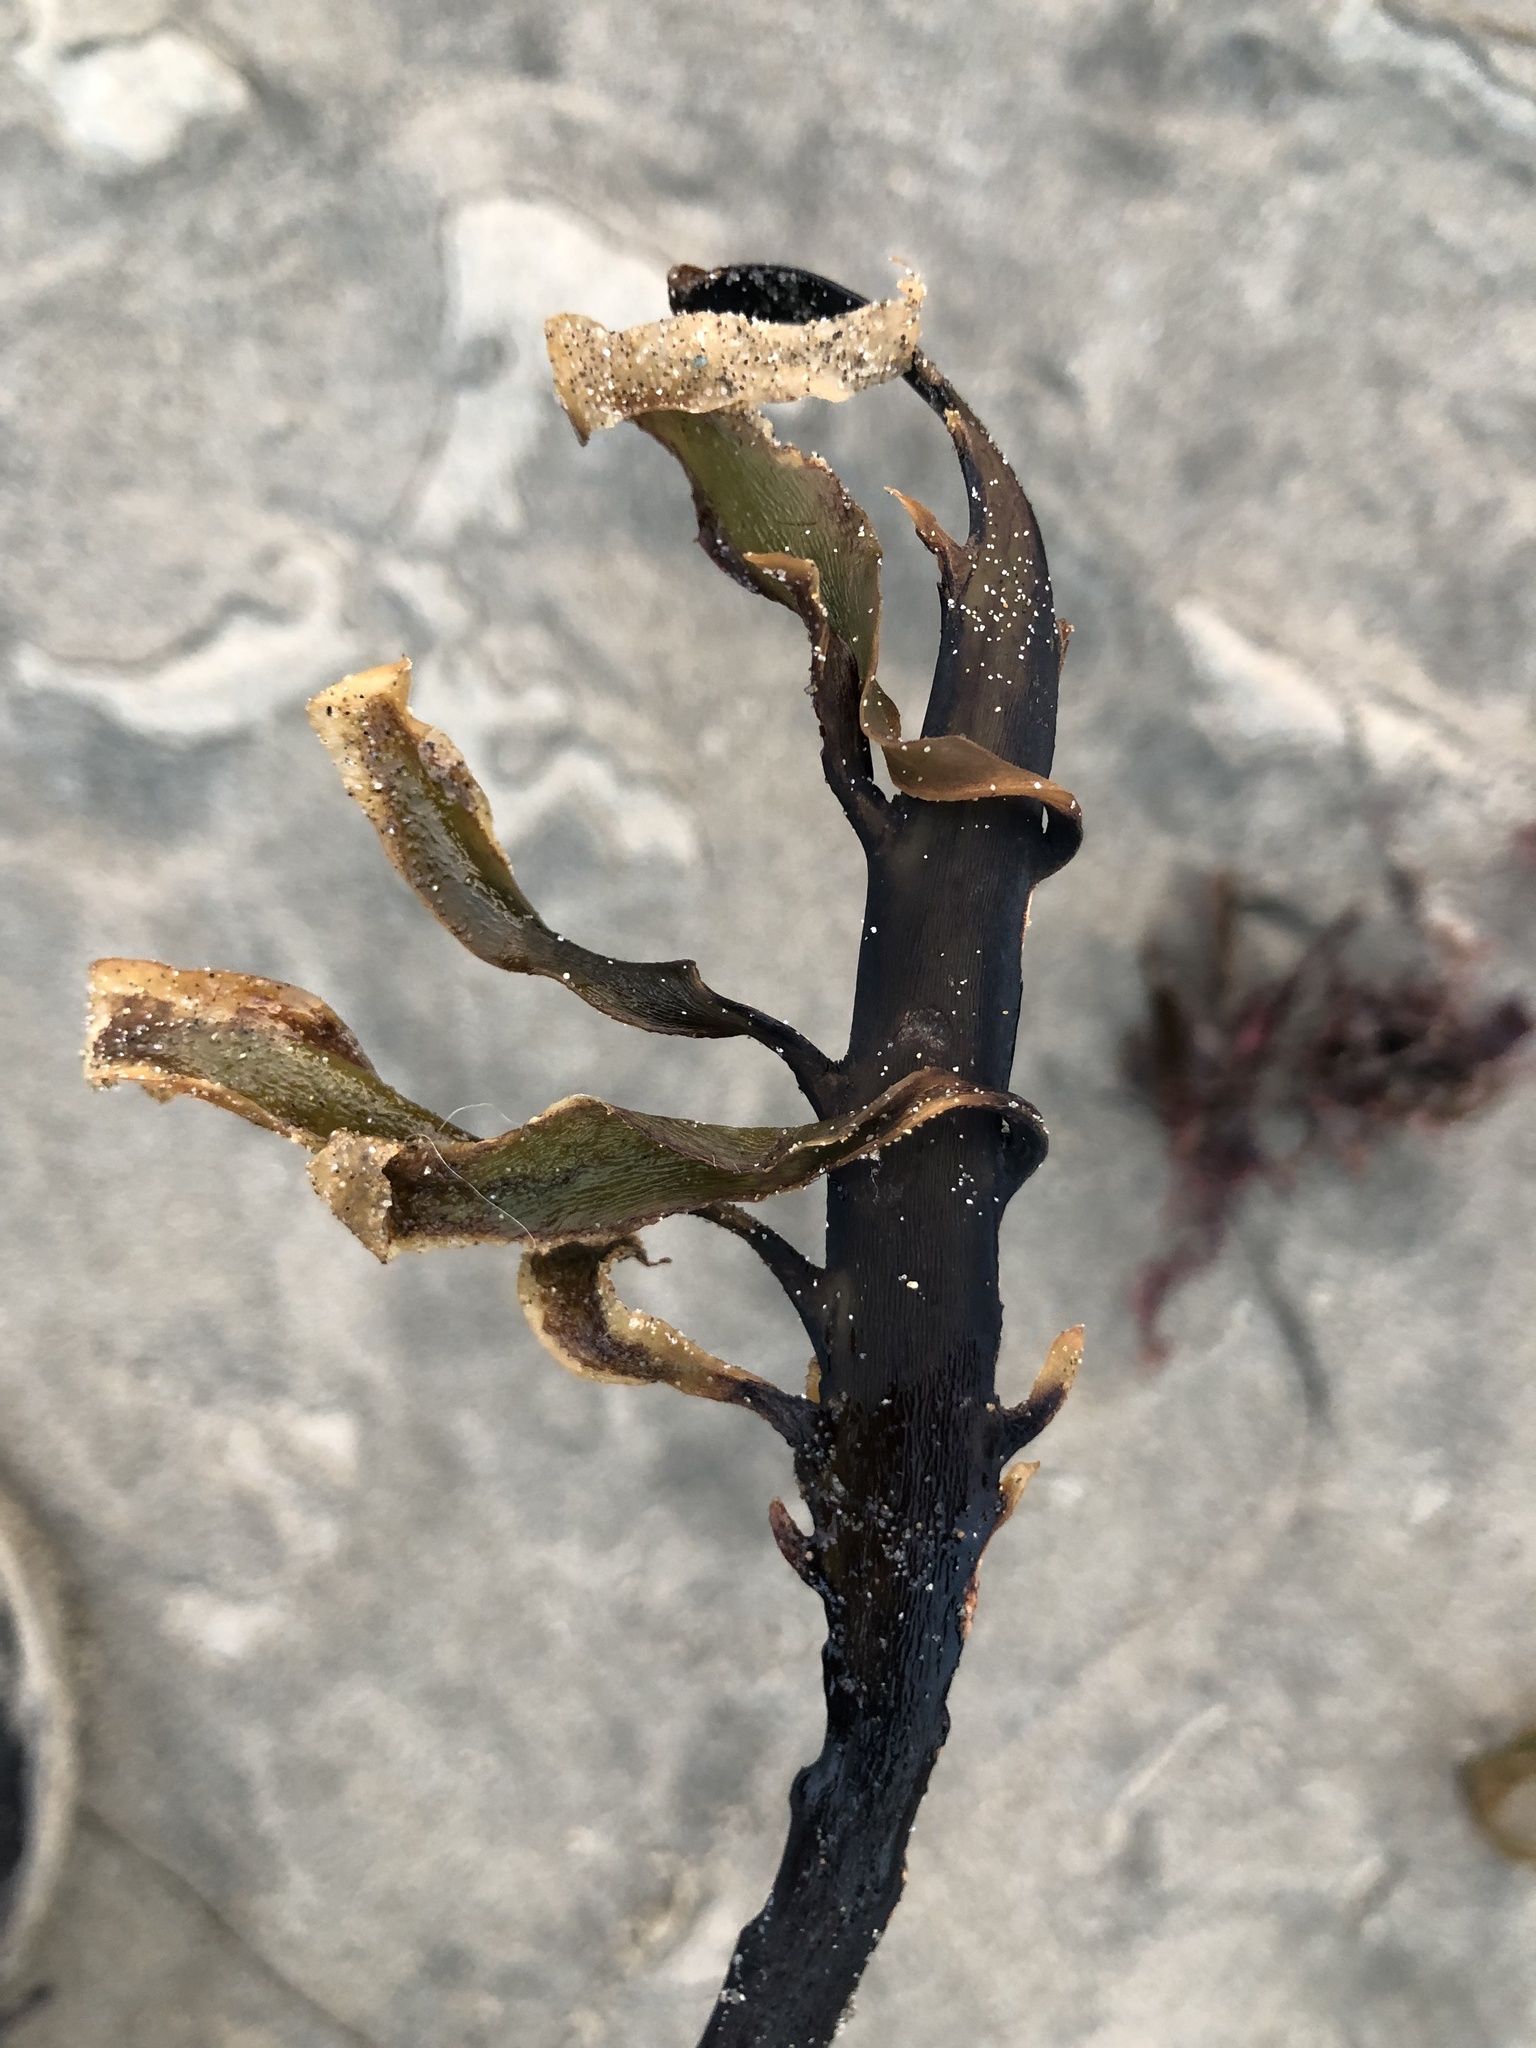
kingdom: Chromista
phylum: Ochrophyta
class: Phaeophyceae
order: Laminariales
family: Alariaceae
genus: Pterygophora
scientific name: Pterygophora californica
